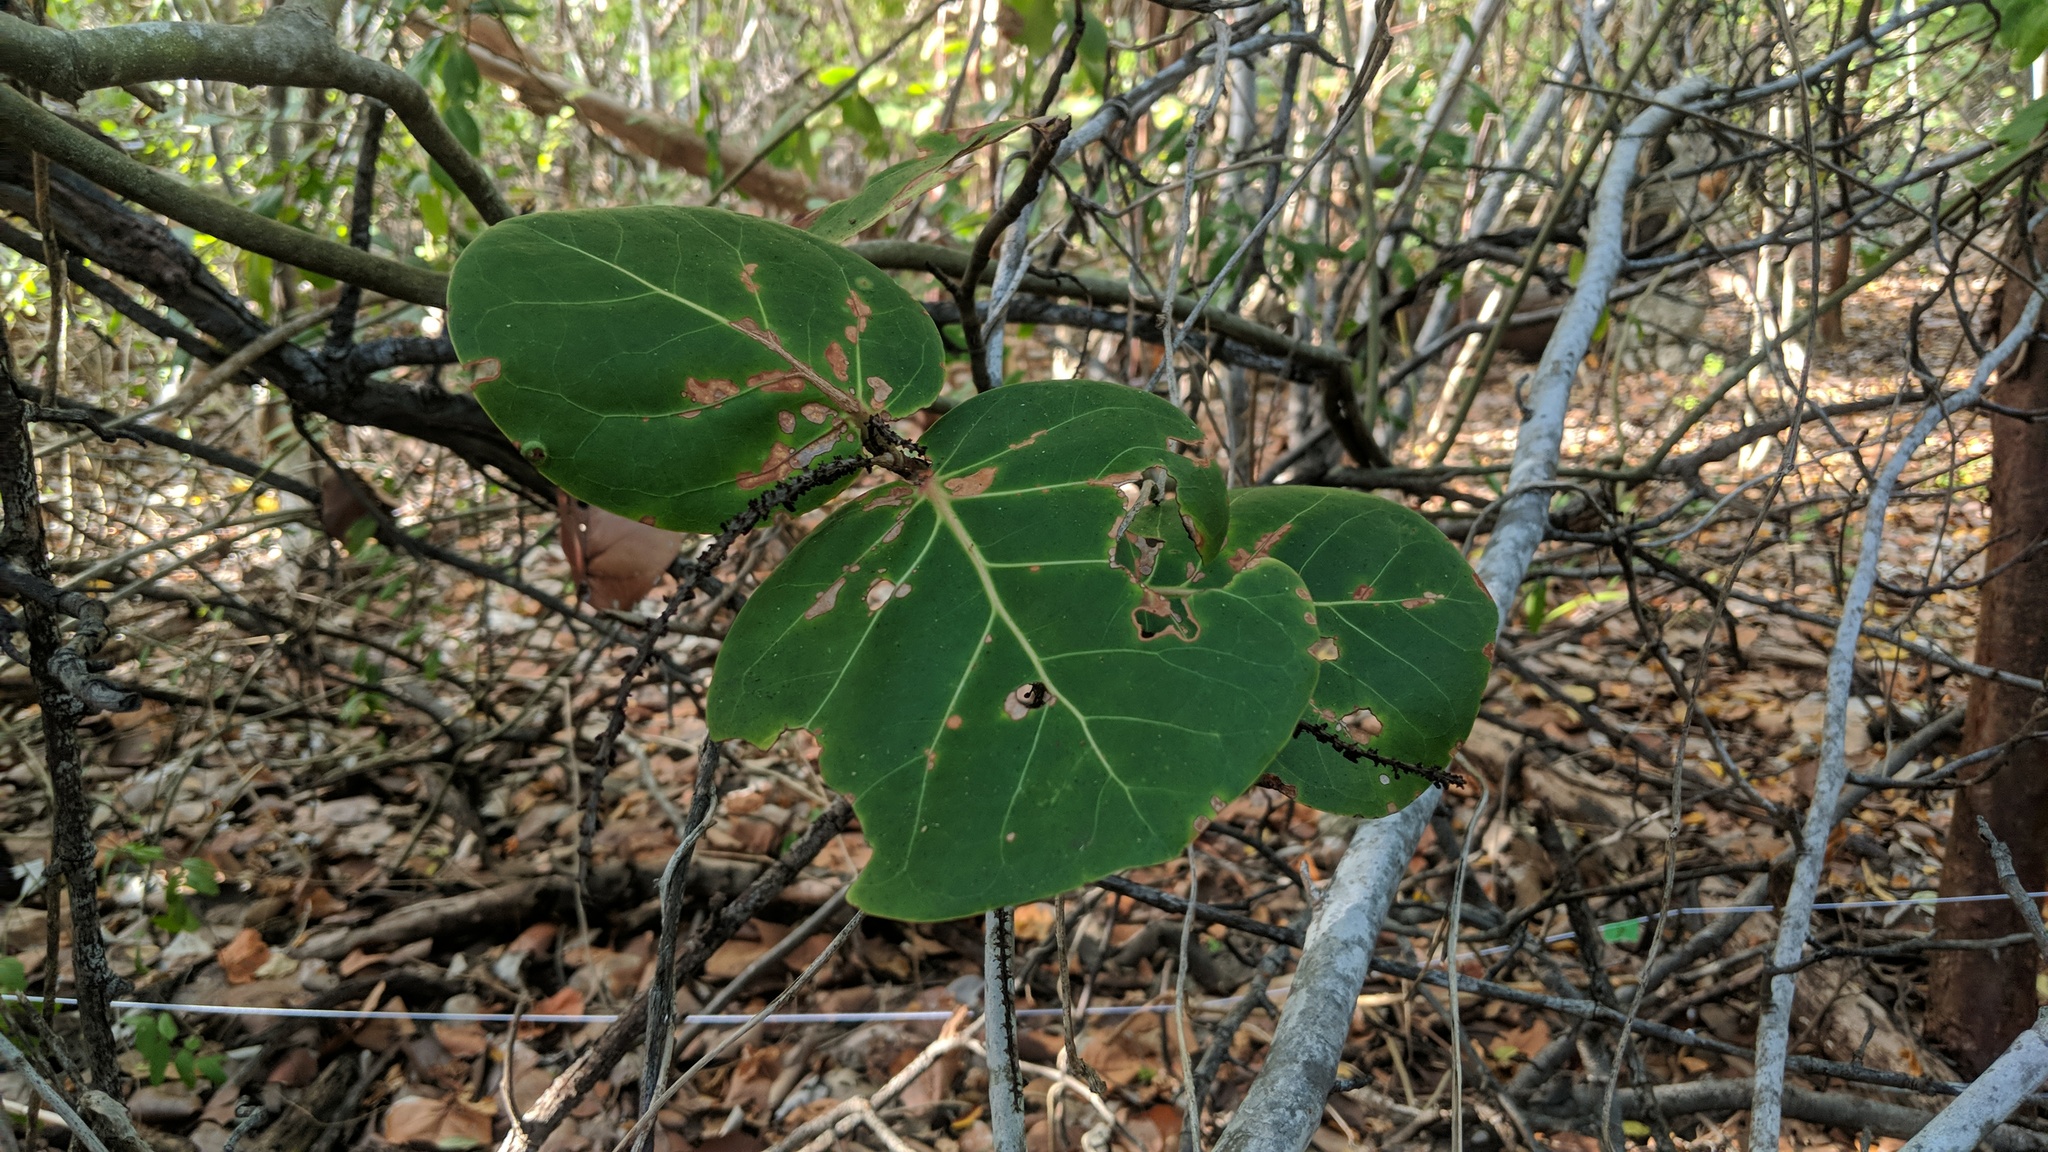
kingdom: Plantae
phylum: Tracheophyta
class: Magnoliopsida
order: Caryophyllales
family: Polygonaceae
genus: Coccoloba
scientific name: Coccoloba uvifera
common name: Seagrape
